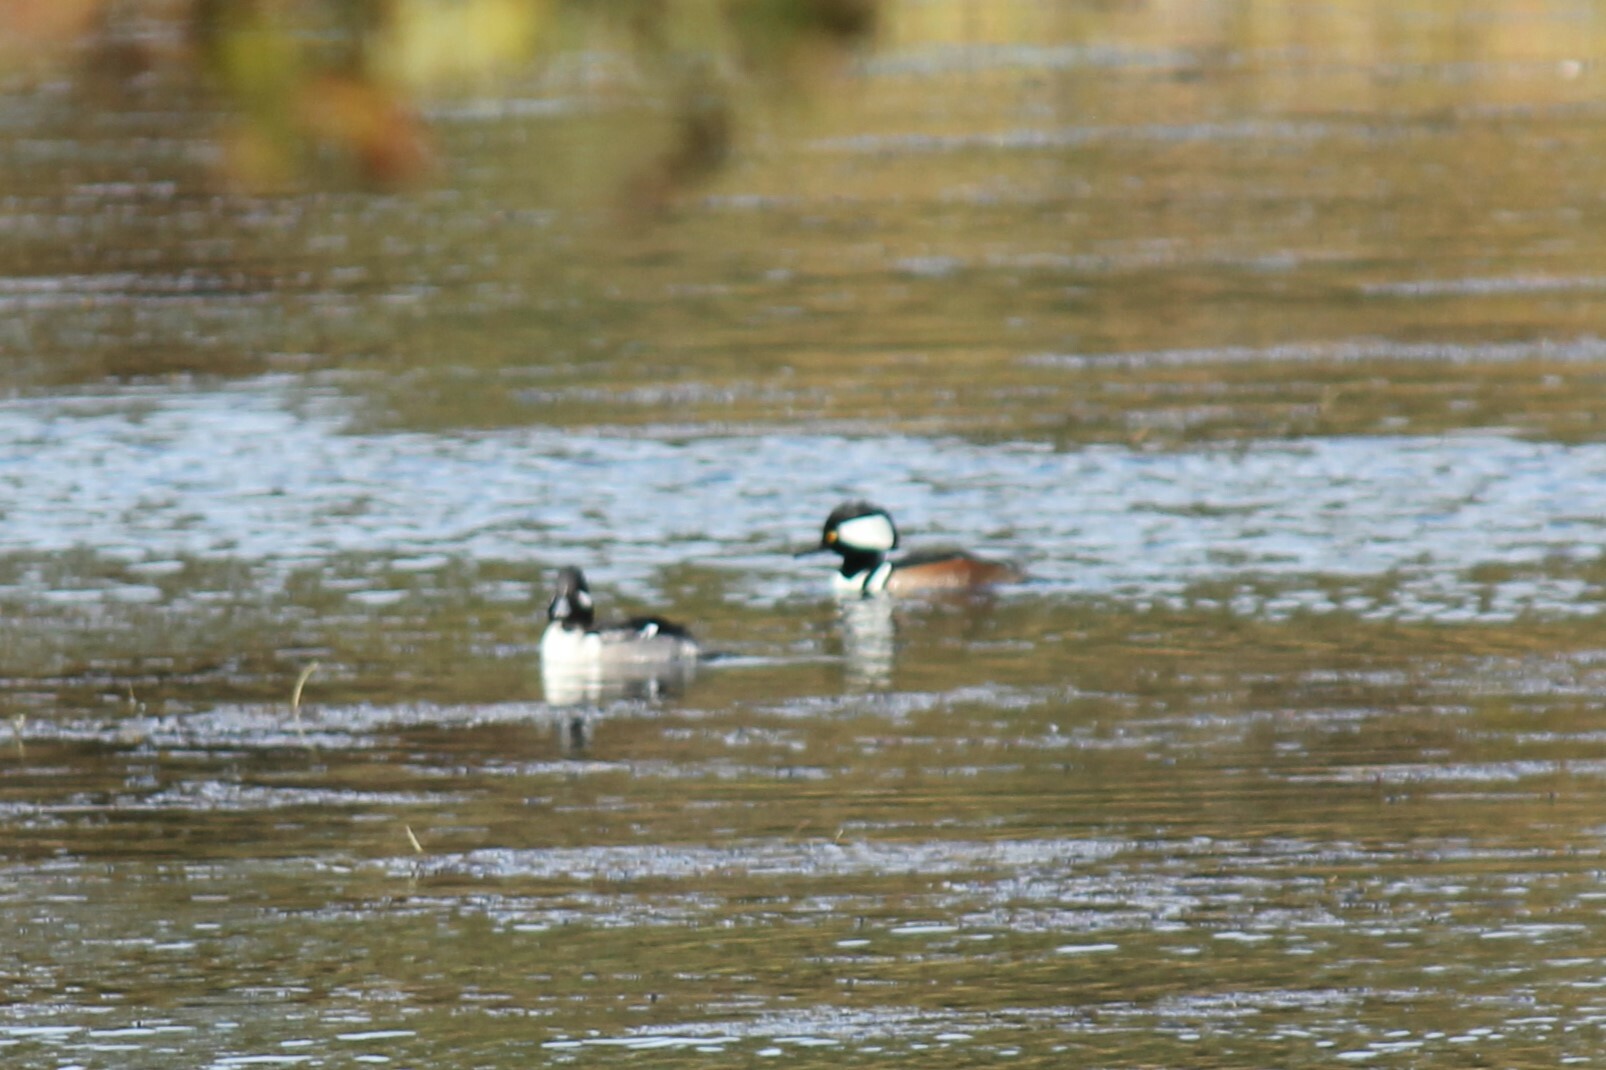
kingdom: Animalia
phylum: Chordata
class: Aves
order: Anseriformes
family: Anatidae
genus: Lophodytes
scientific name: Lophodytes cucullatus
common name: Hooded merganser
